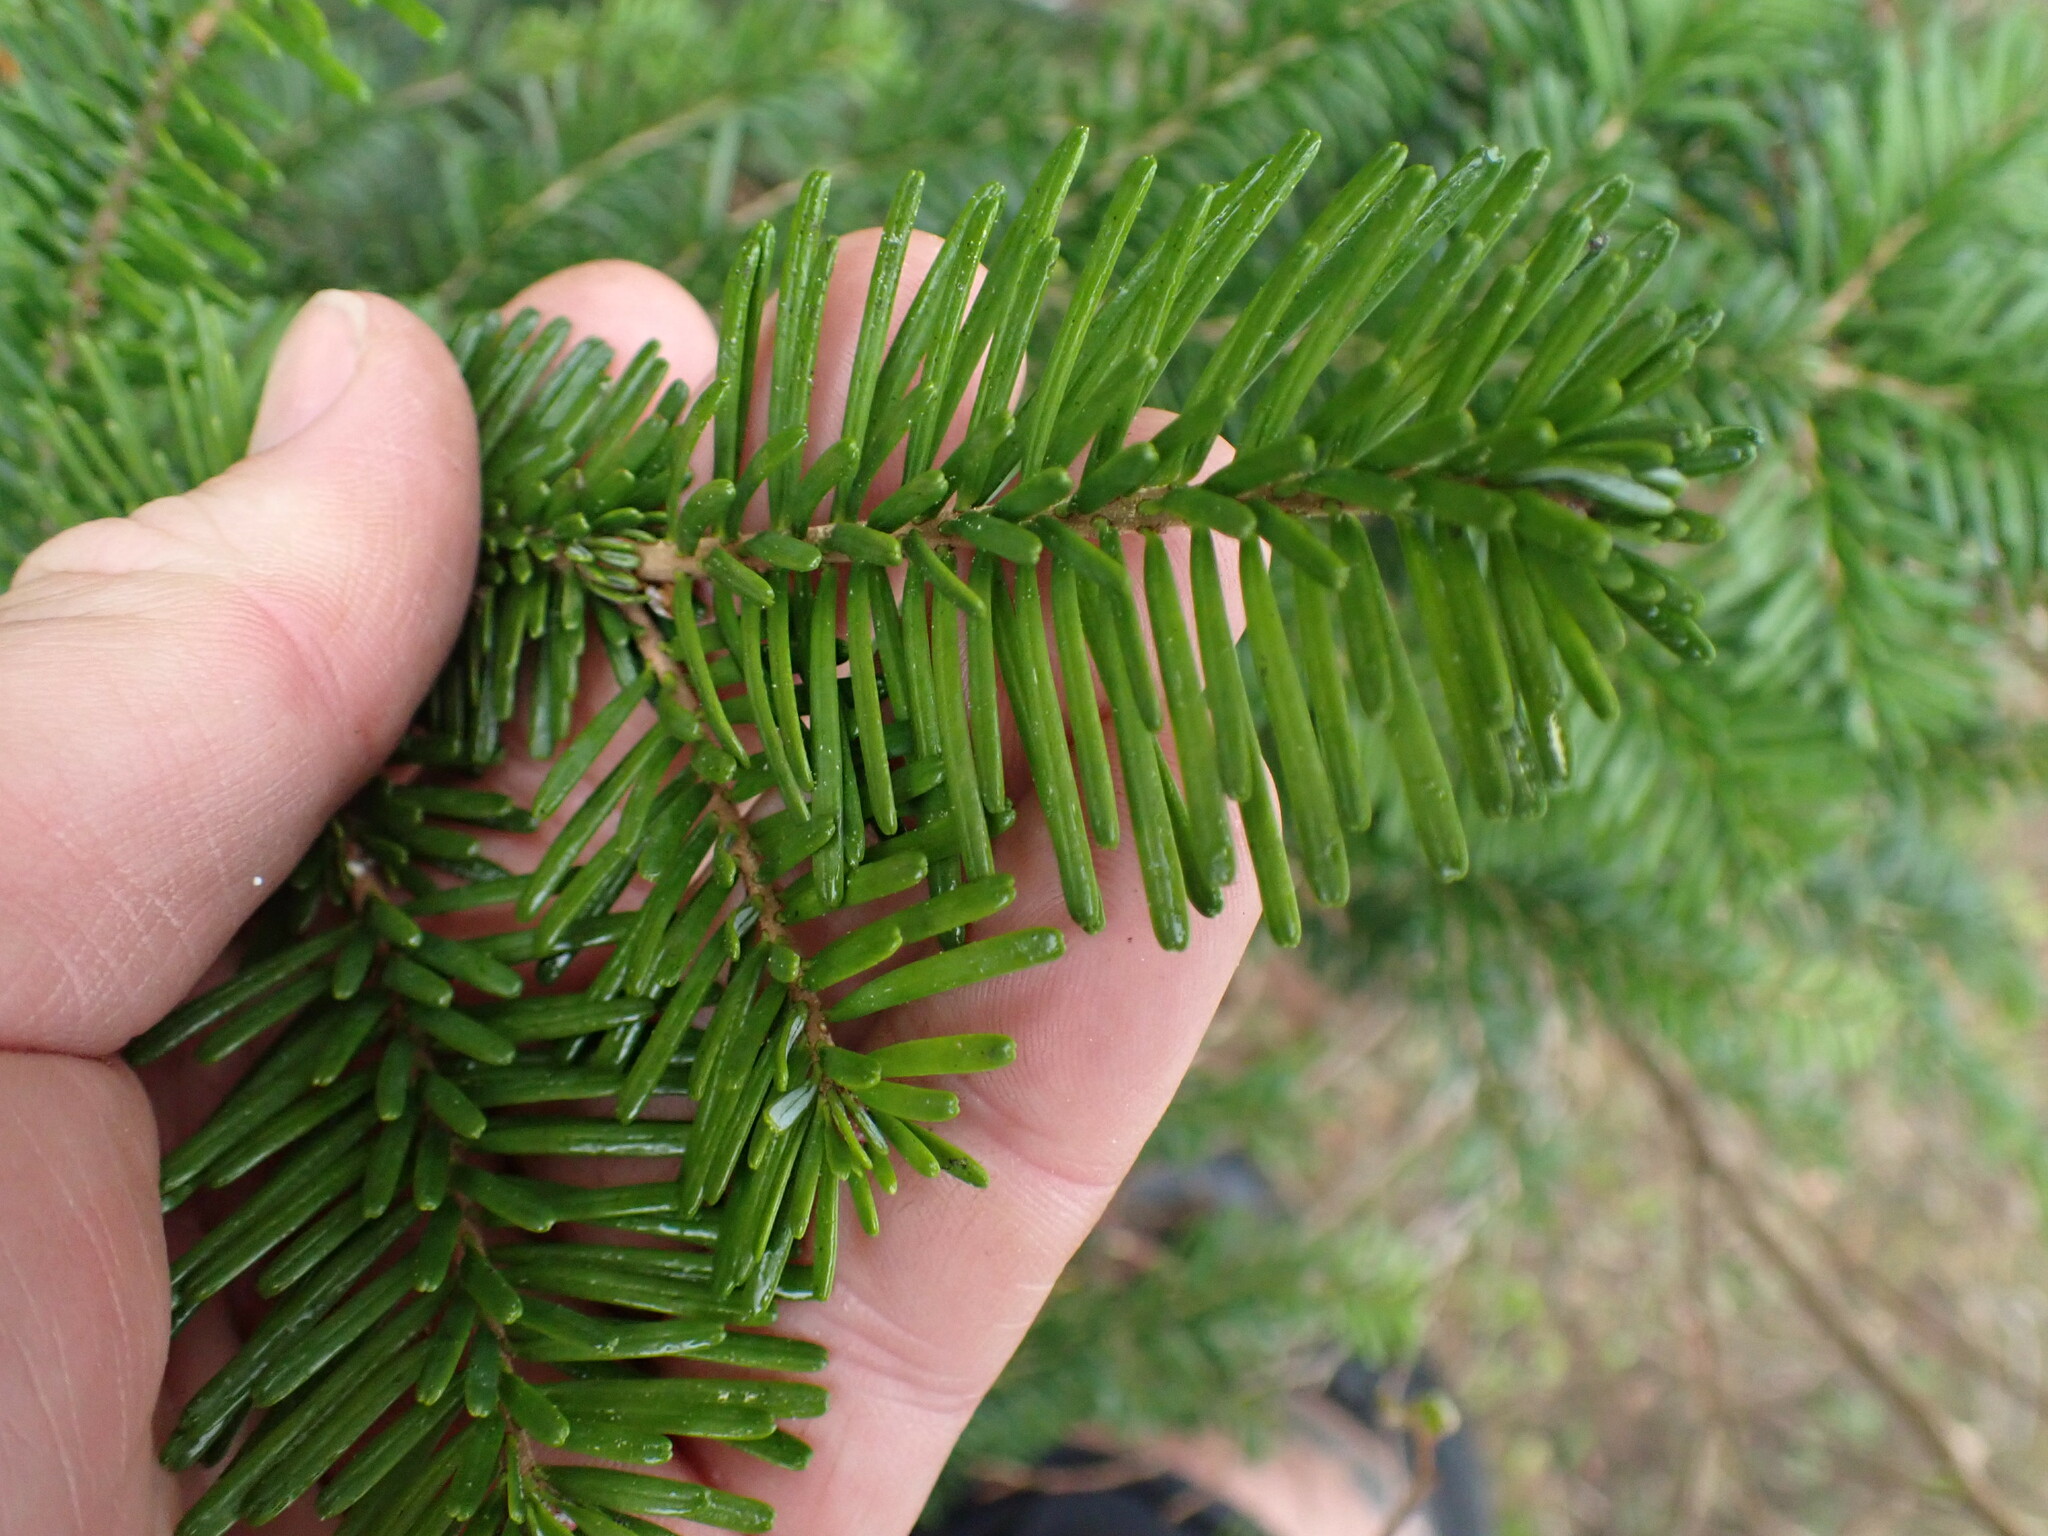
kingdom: Plantae
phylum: Tracheophyta
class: Pinopsida
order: Pinales
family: Pinaceae
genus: Abies
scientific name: Abies amabilis
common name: Pacific silver fir
